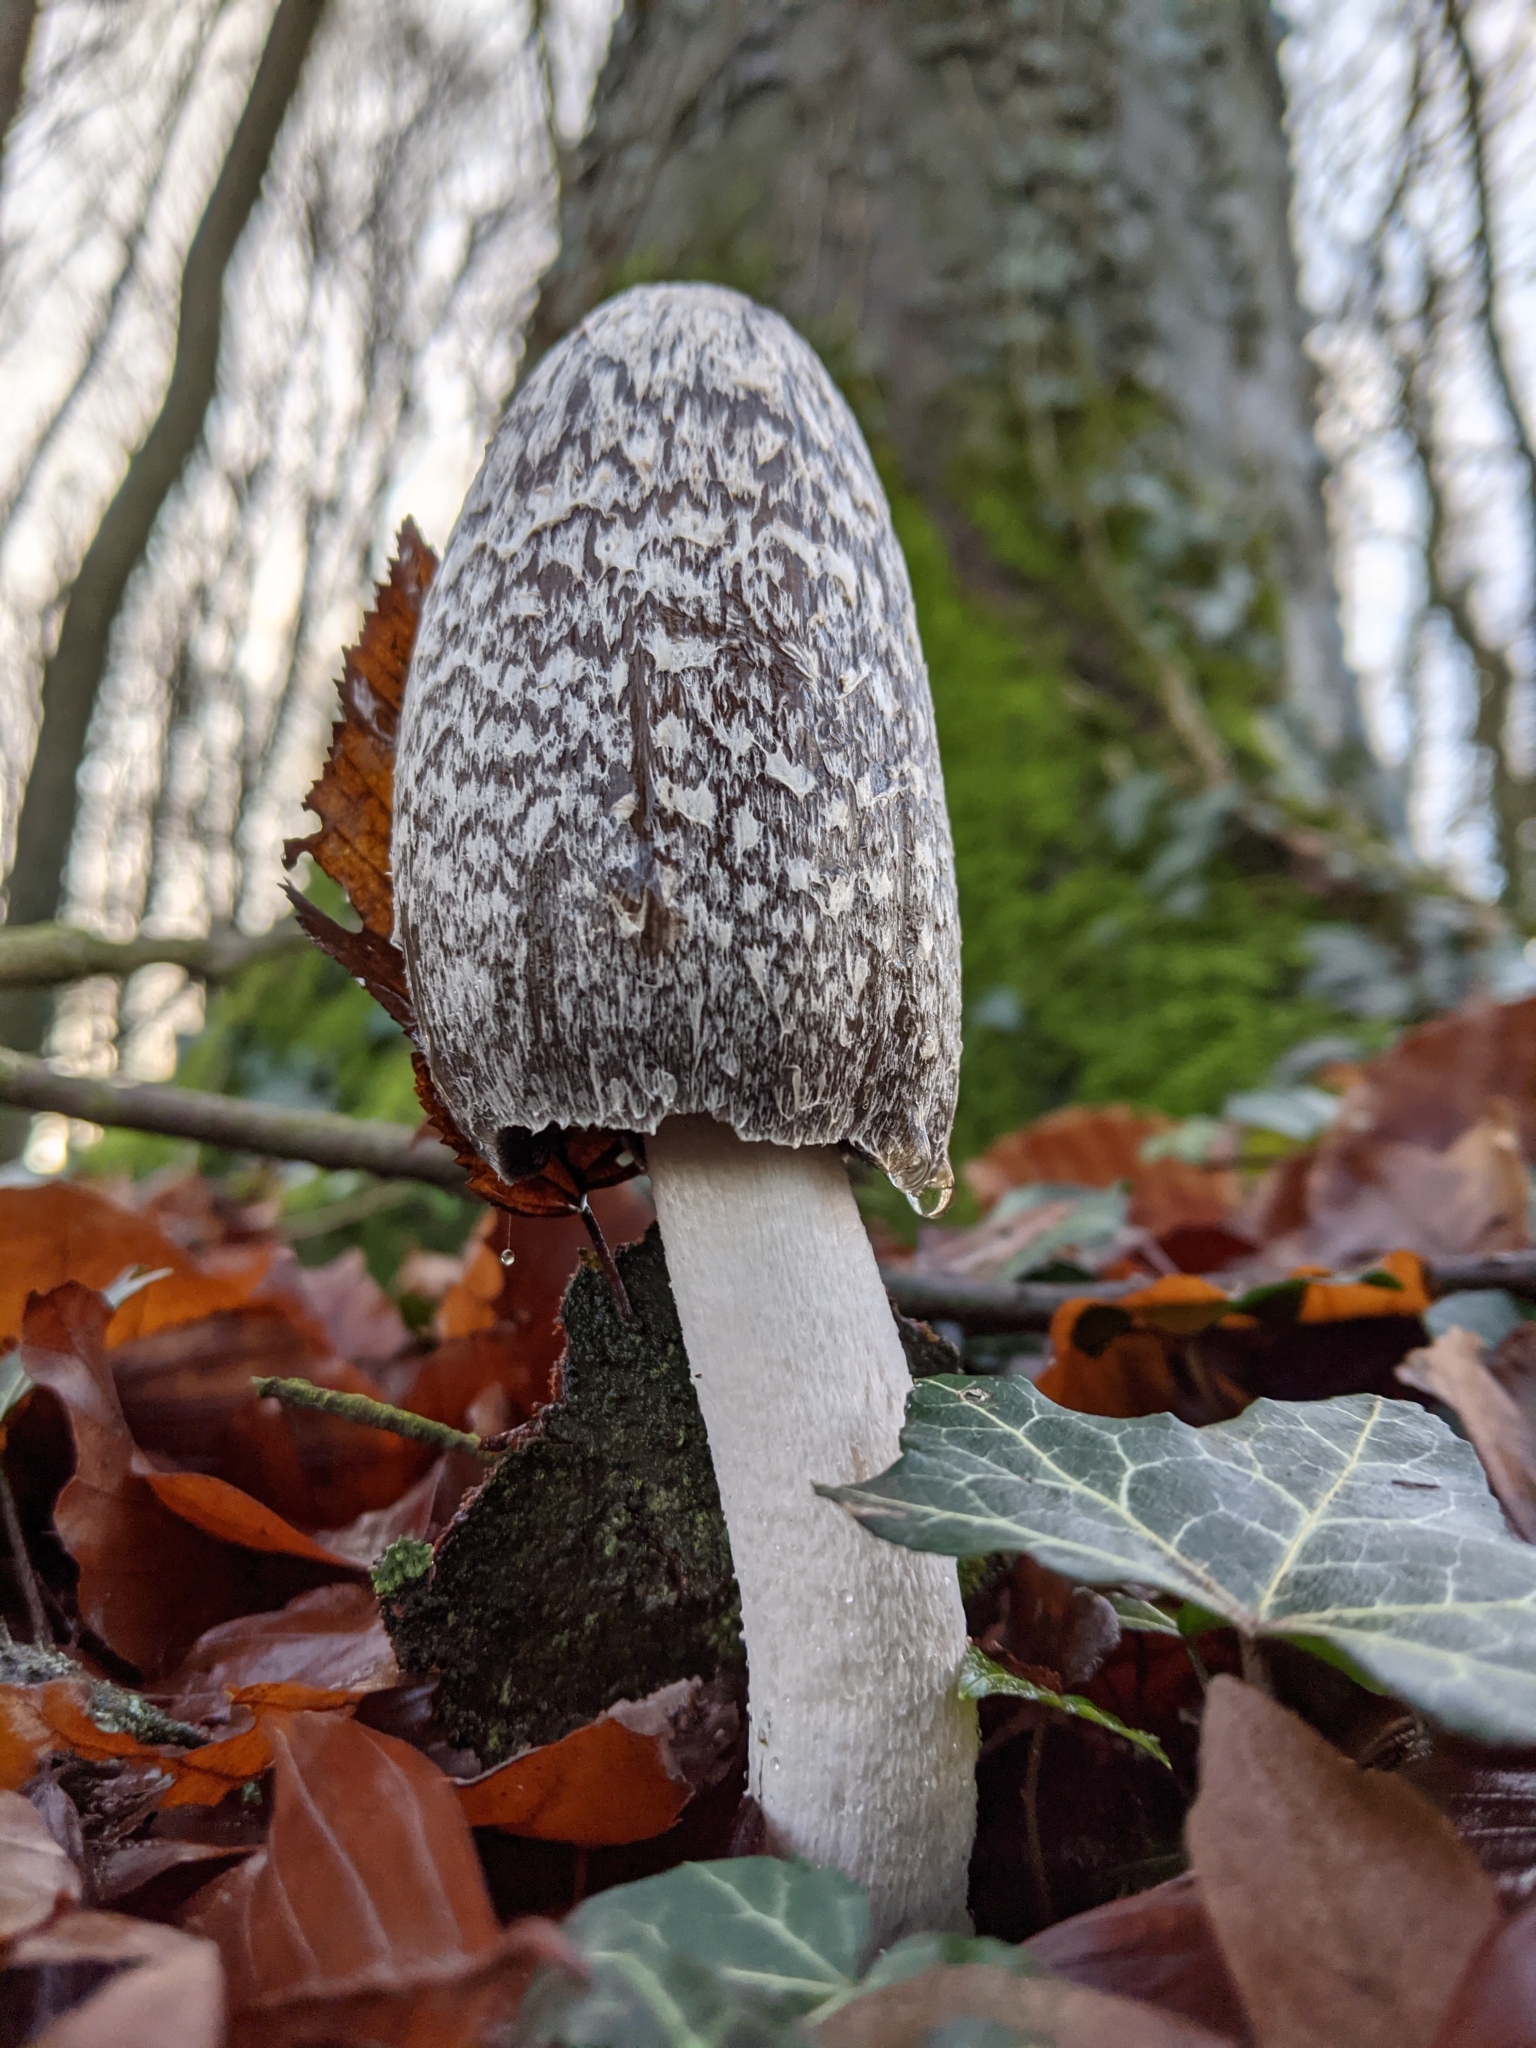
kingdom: Fungi
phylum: Basidiomycota
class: Agaricomycetes
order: Agaricales
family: Psathyrellaceae
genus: Coprinopsis
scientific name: Coprinopsis picacea
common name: Magpie inkcap
